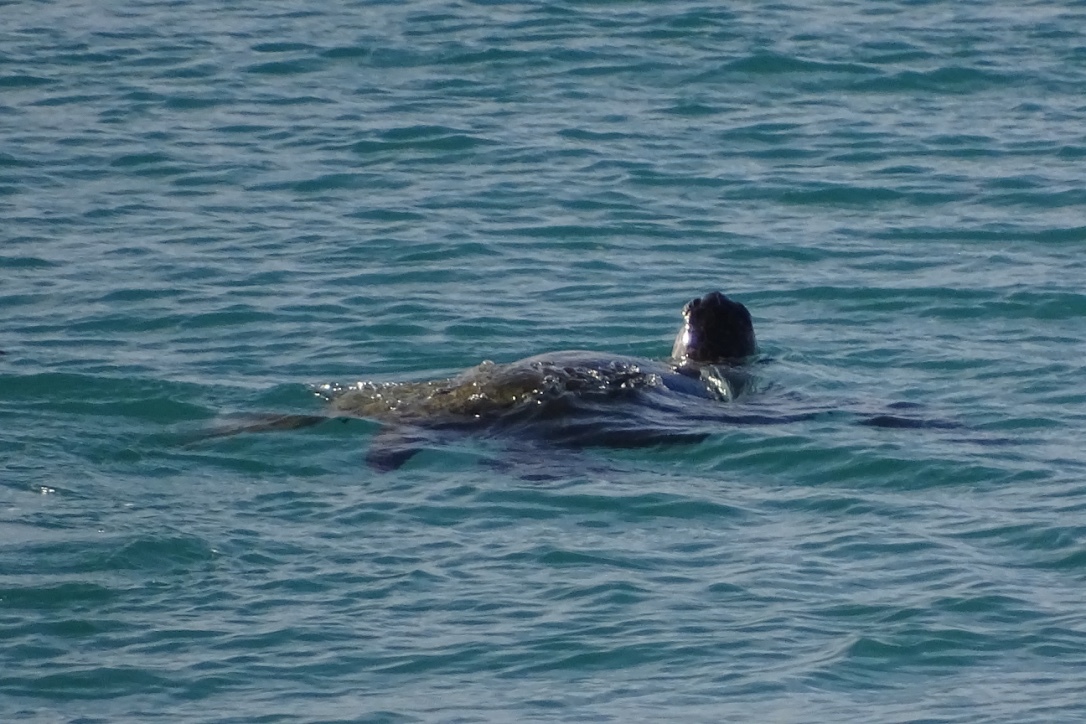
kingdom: Animalia
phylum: Chordata
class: Testudines
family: Cheloniidae
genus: Chelonia
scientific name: Chelonia mydas
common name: Green turtle
